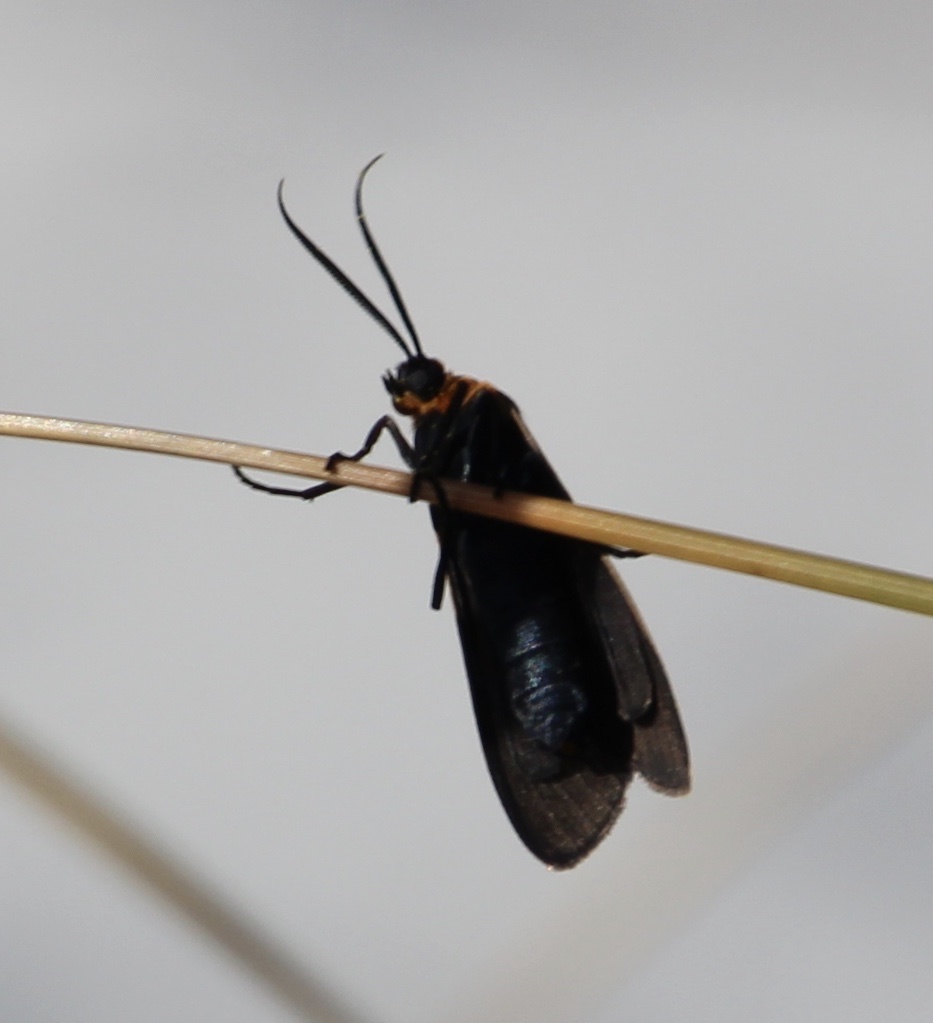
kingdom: Animalia
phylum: Arthropoda
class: Insecta
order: Lepidoptera
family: Erebidae
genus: Cisseps
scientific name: Cisseps fulvicollis
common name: Yellow-collared scape moth
